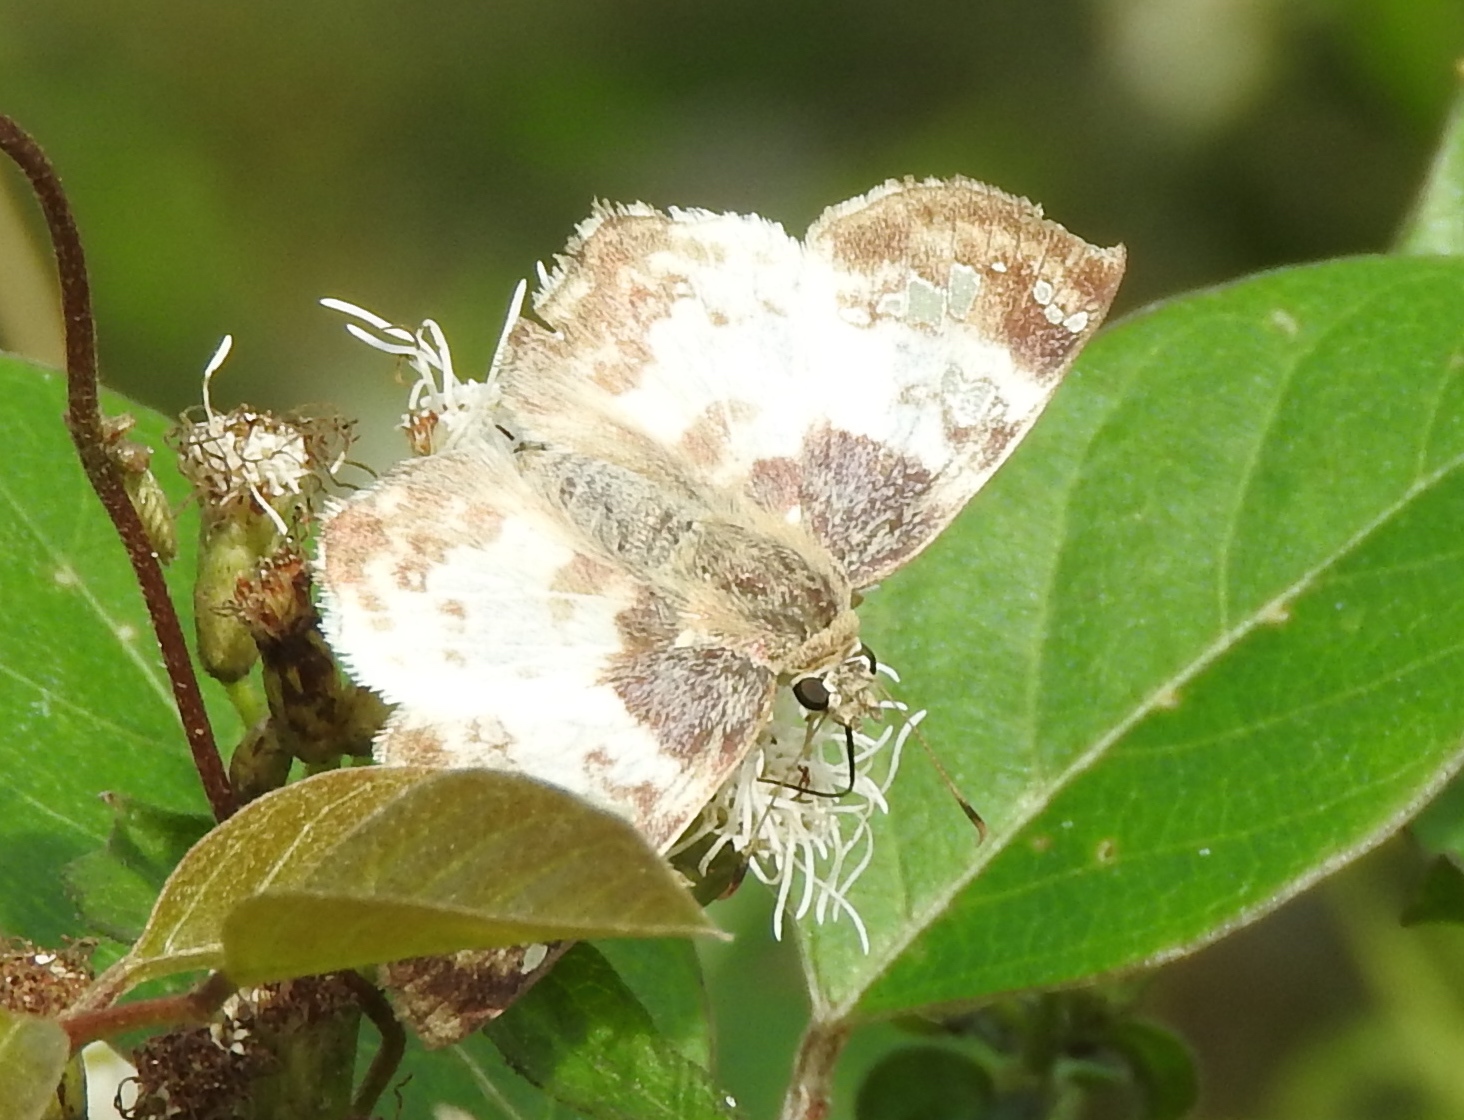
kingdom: Animalia
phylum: Arthropoda
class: Insecta
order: Lepidoptera
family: Hesperiidae
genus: Polyctor
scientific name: Polyctor cleta
